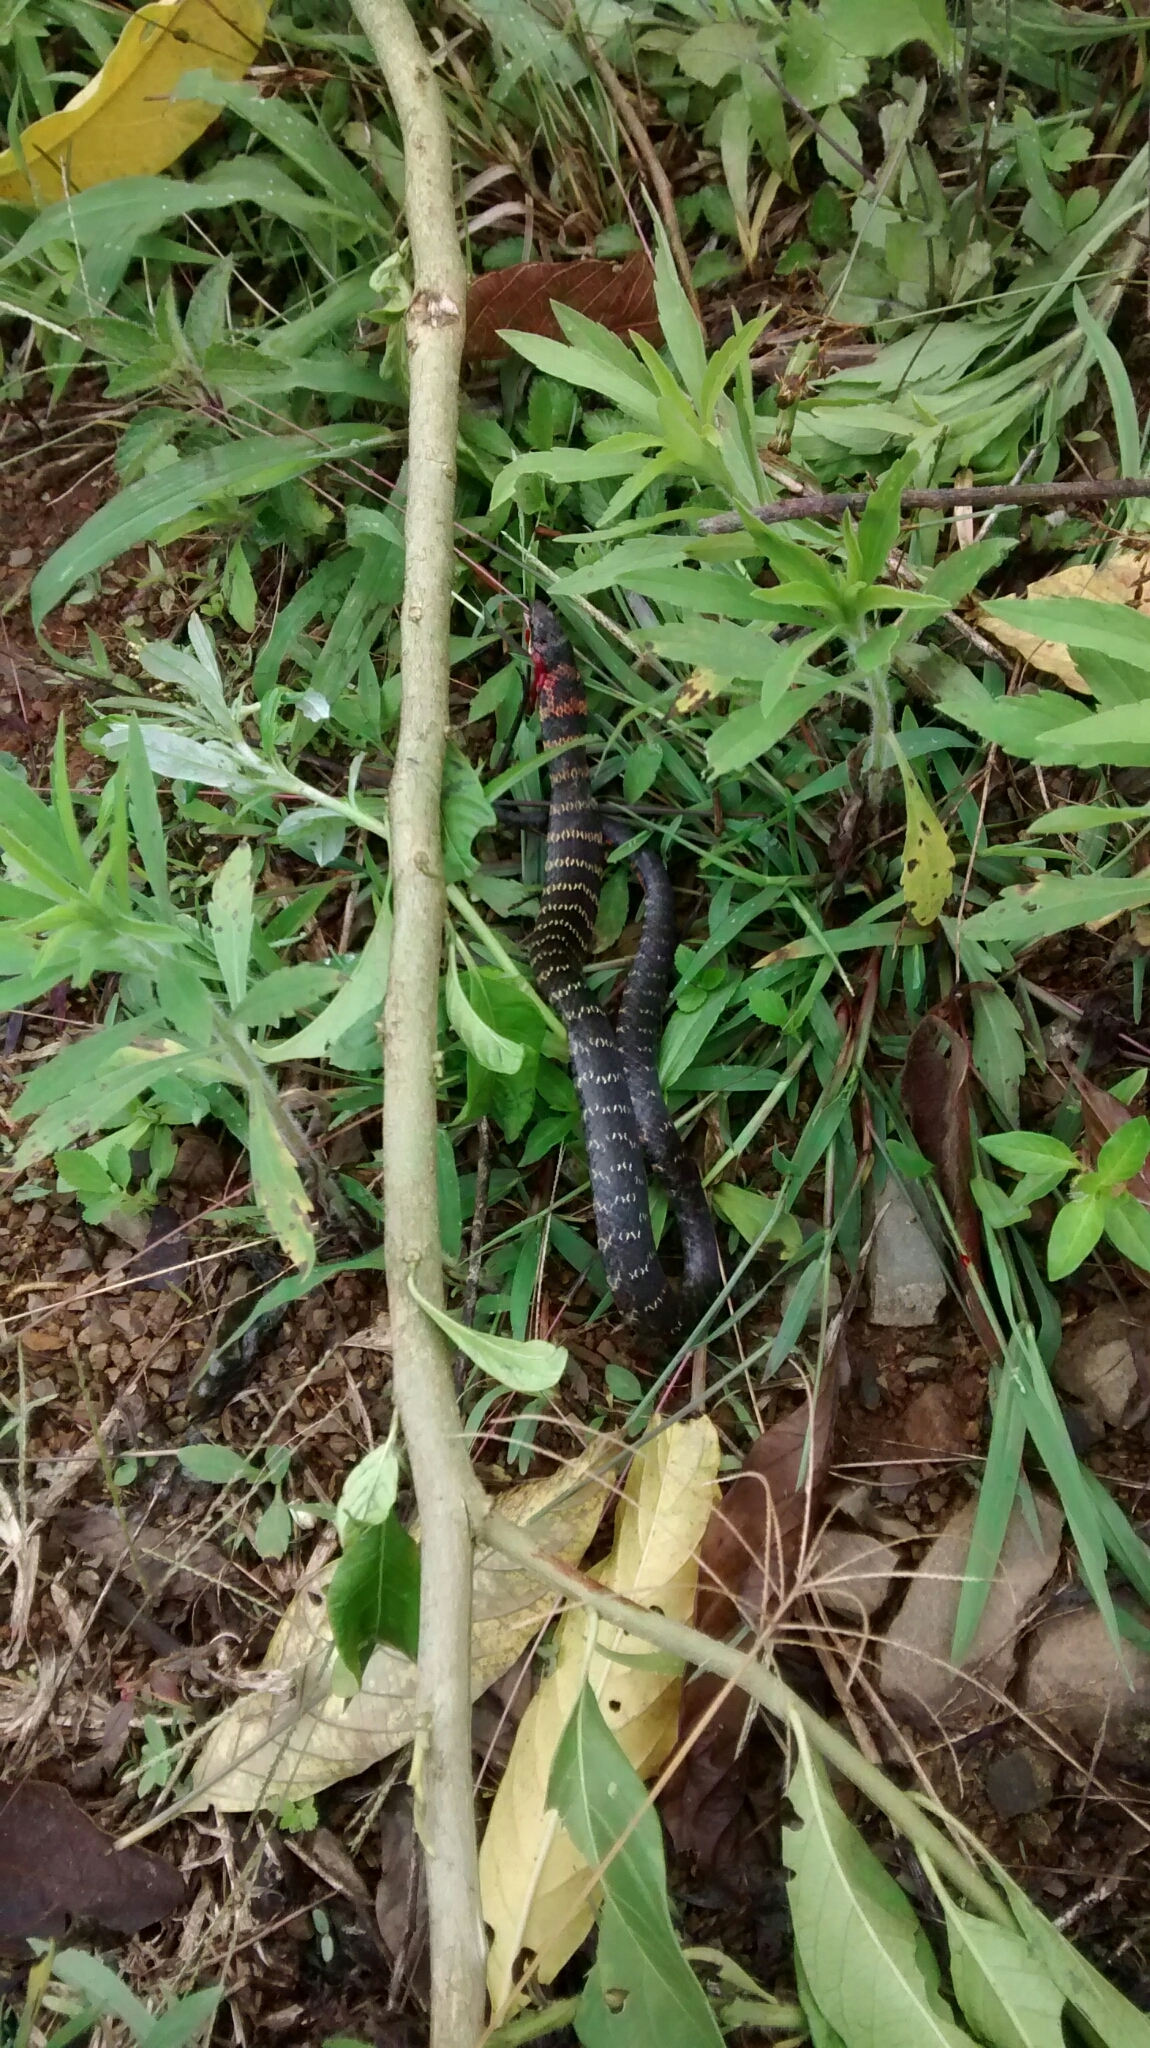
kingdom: Animalia
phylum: Chordata
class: Squamata
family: Colubridae
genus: Erythrolamprus
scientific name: Erythrolamprus epinephalus
